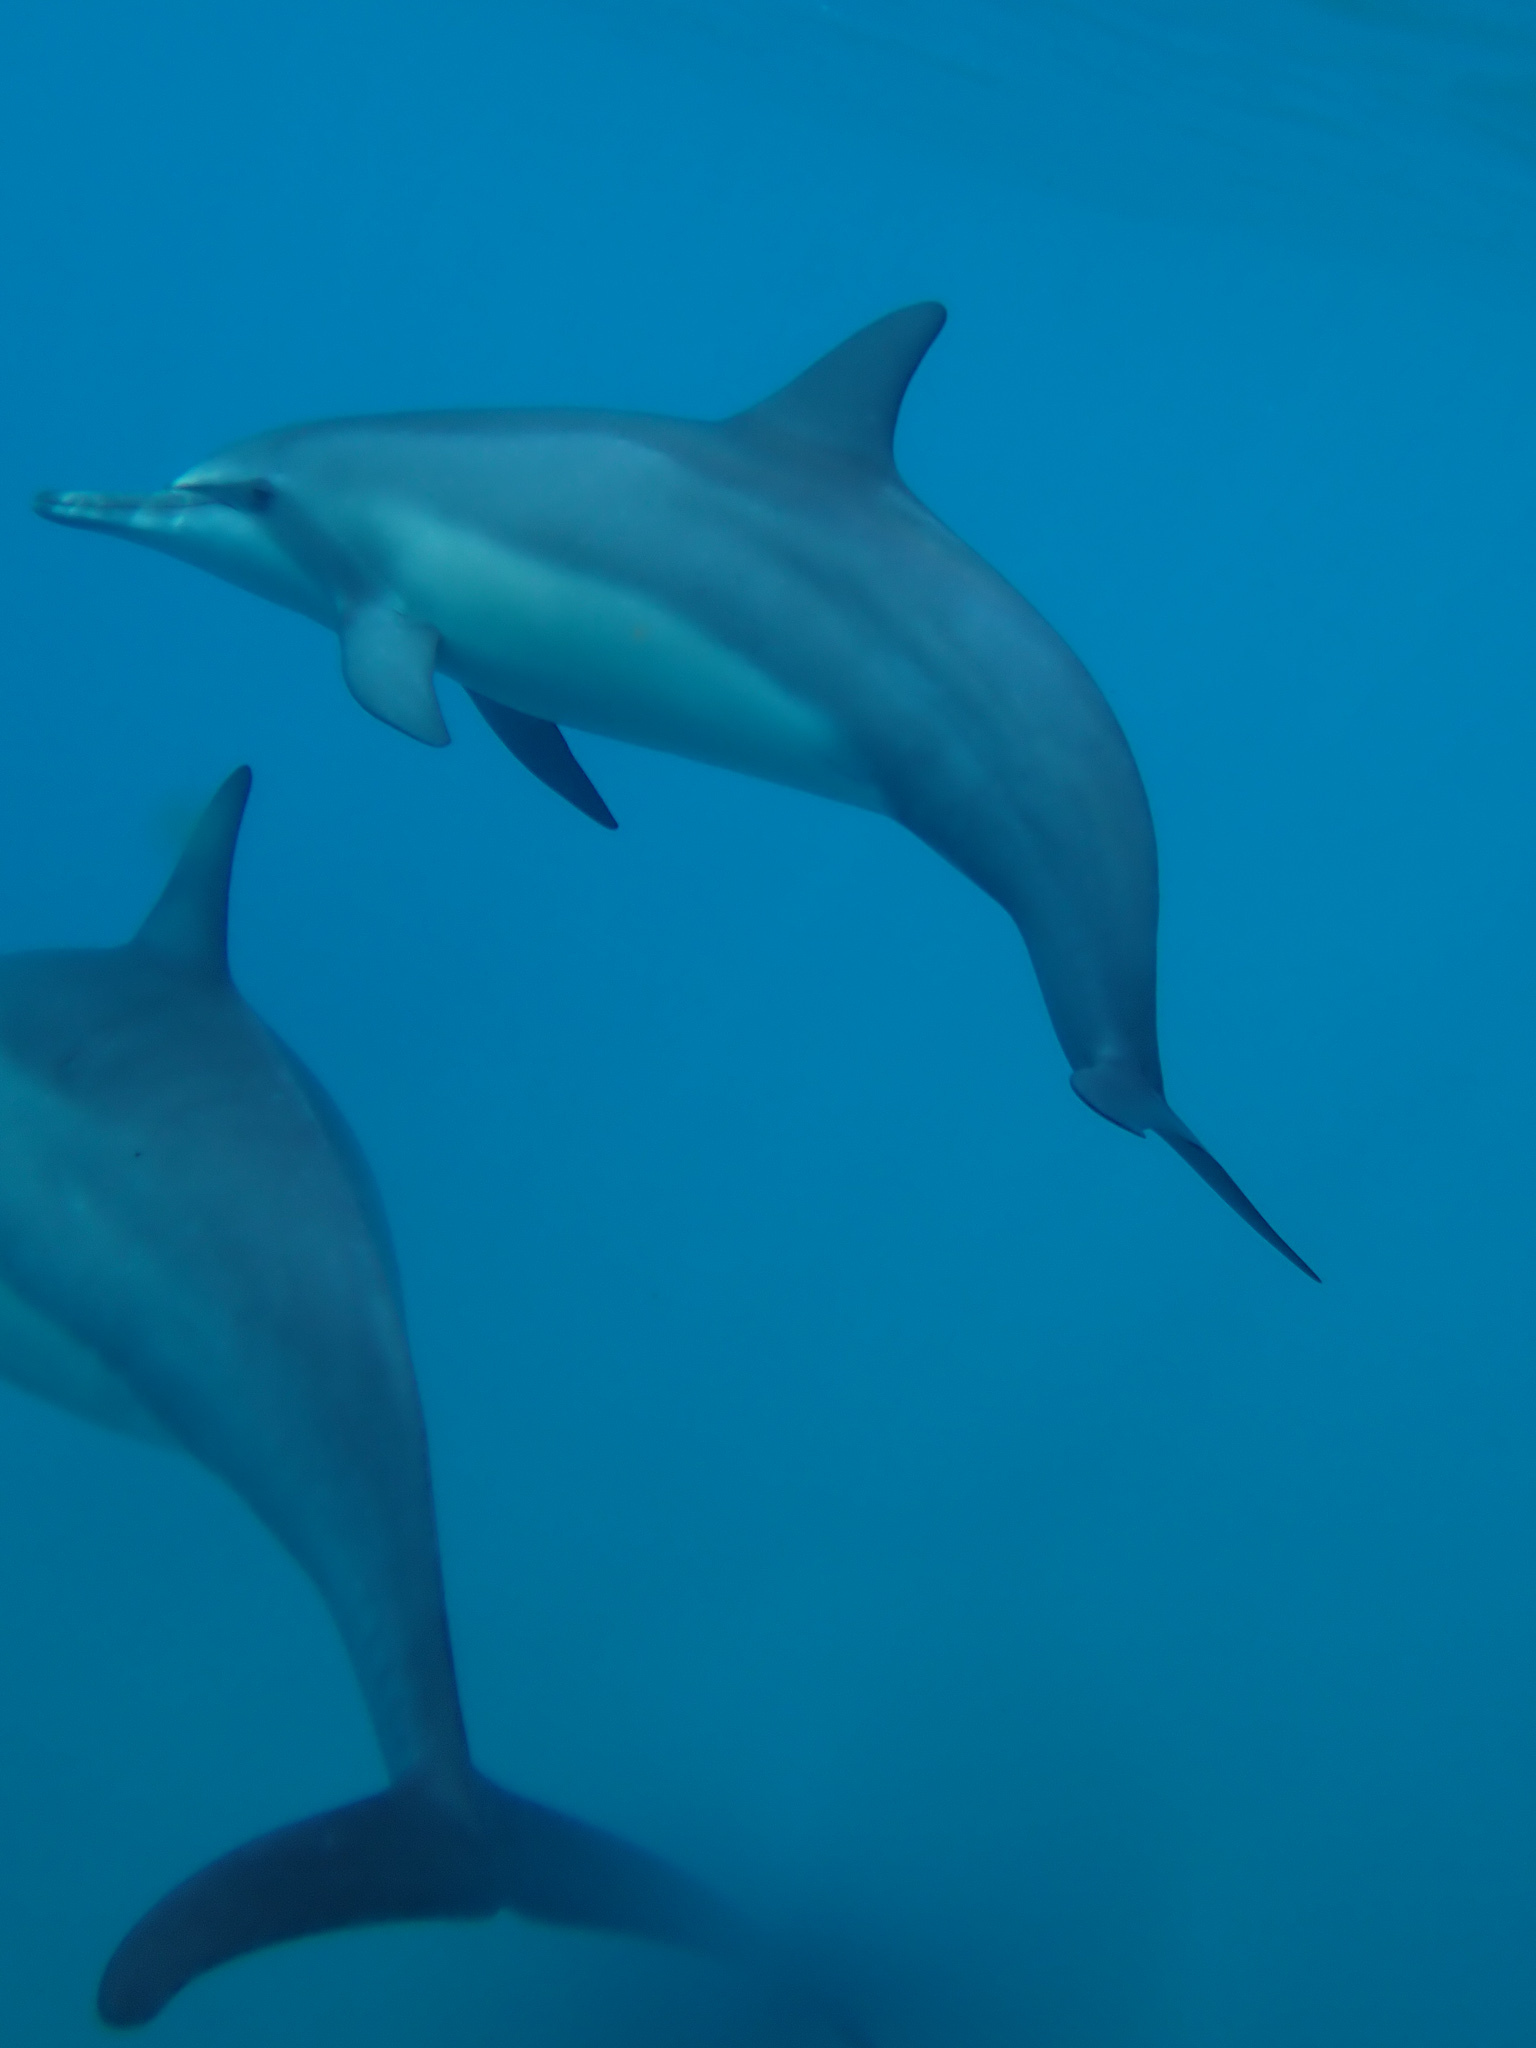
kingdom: Animalia
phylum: Chordata
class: Mammalia
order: Cetacea
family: Delphinidae
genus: Stenella
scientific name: Stenella longirostris
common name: Spinner dolphin
